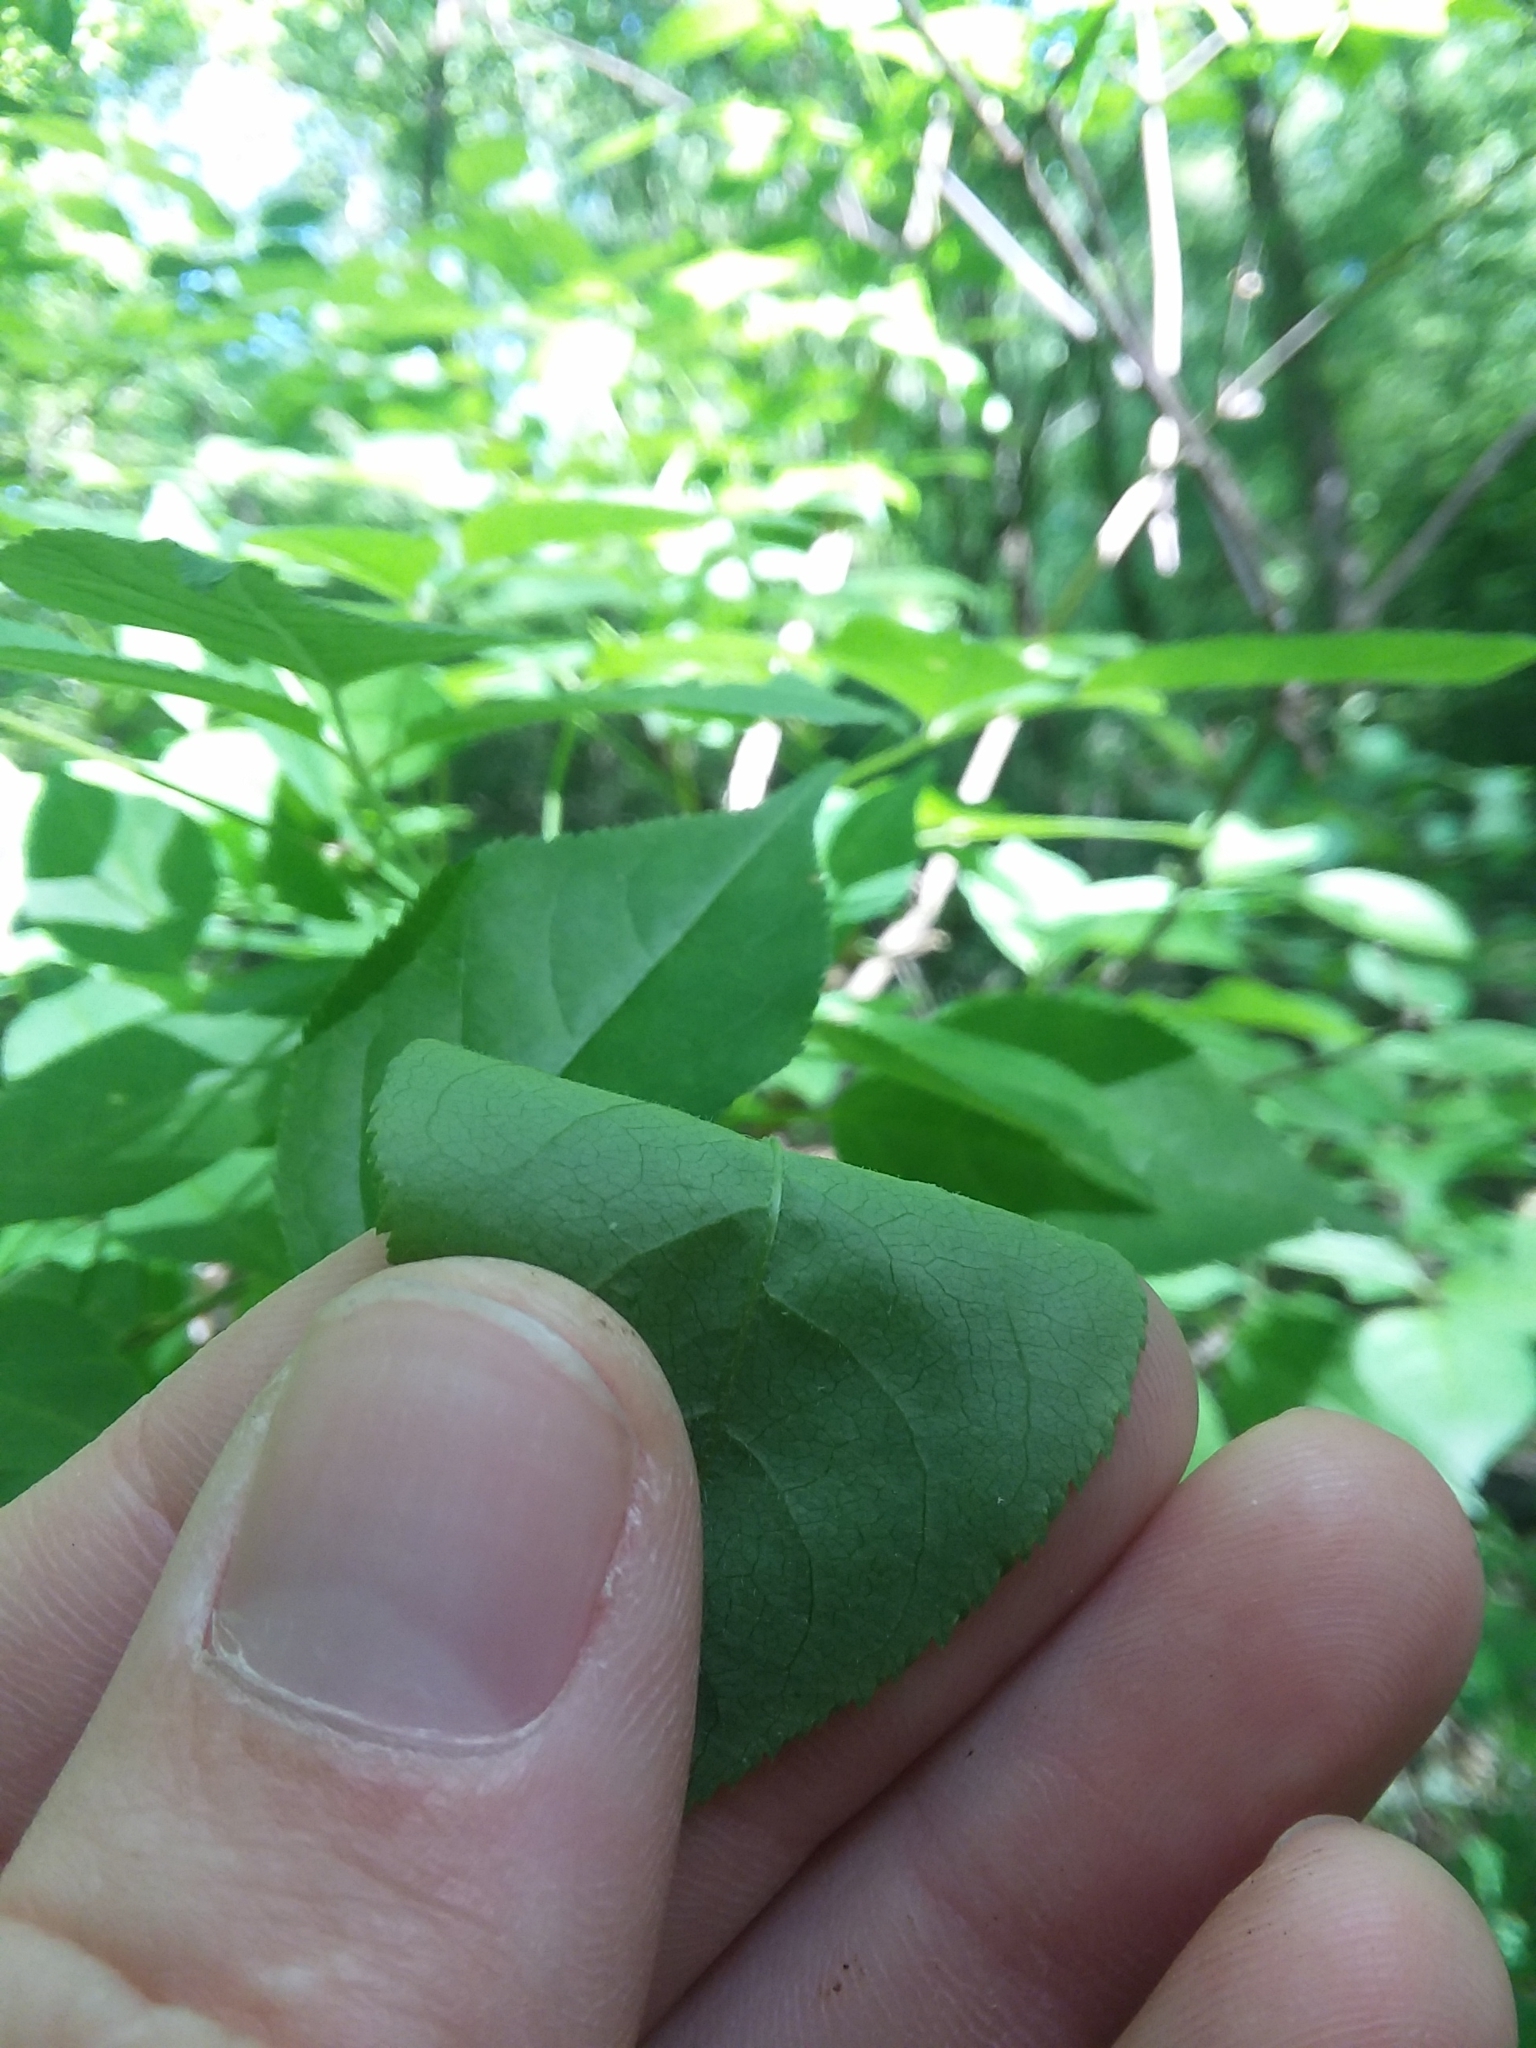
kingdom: Plantae
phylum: Tracheophyta
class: Magnoliopsida
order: Crossosomatales
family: Staphyleaceae
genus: Staphylea
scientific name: Staphylea trifolia
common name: American bladdernut
